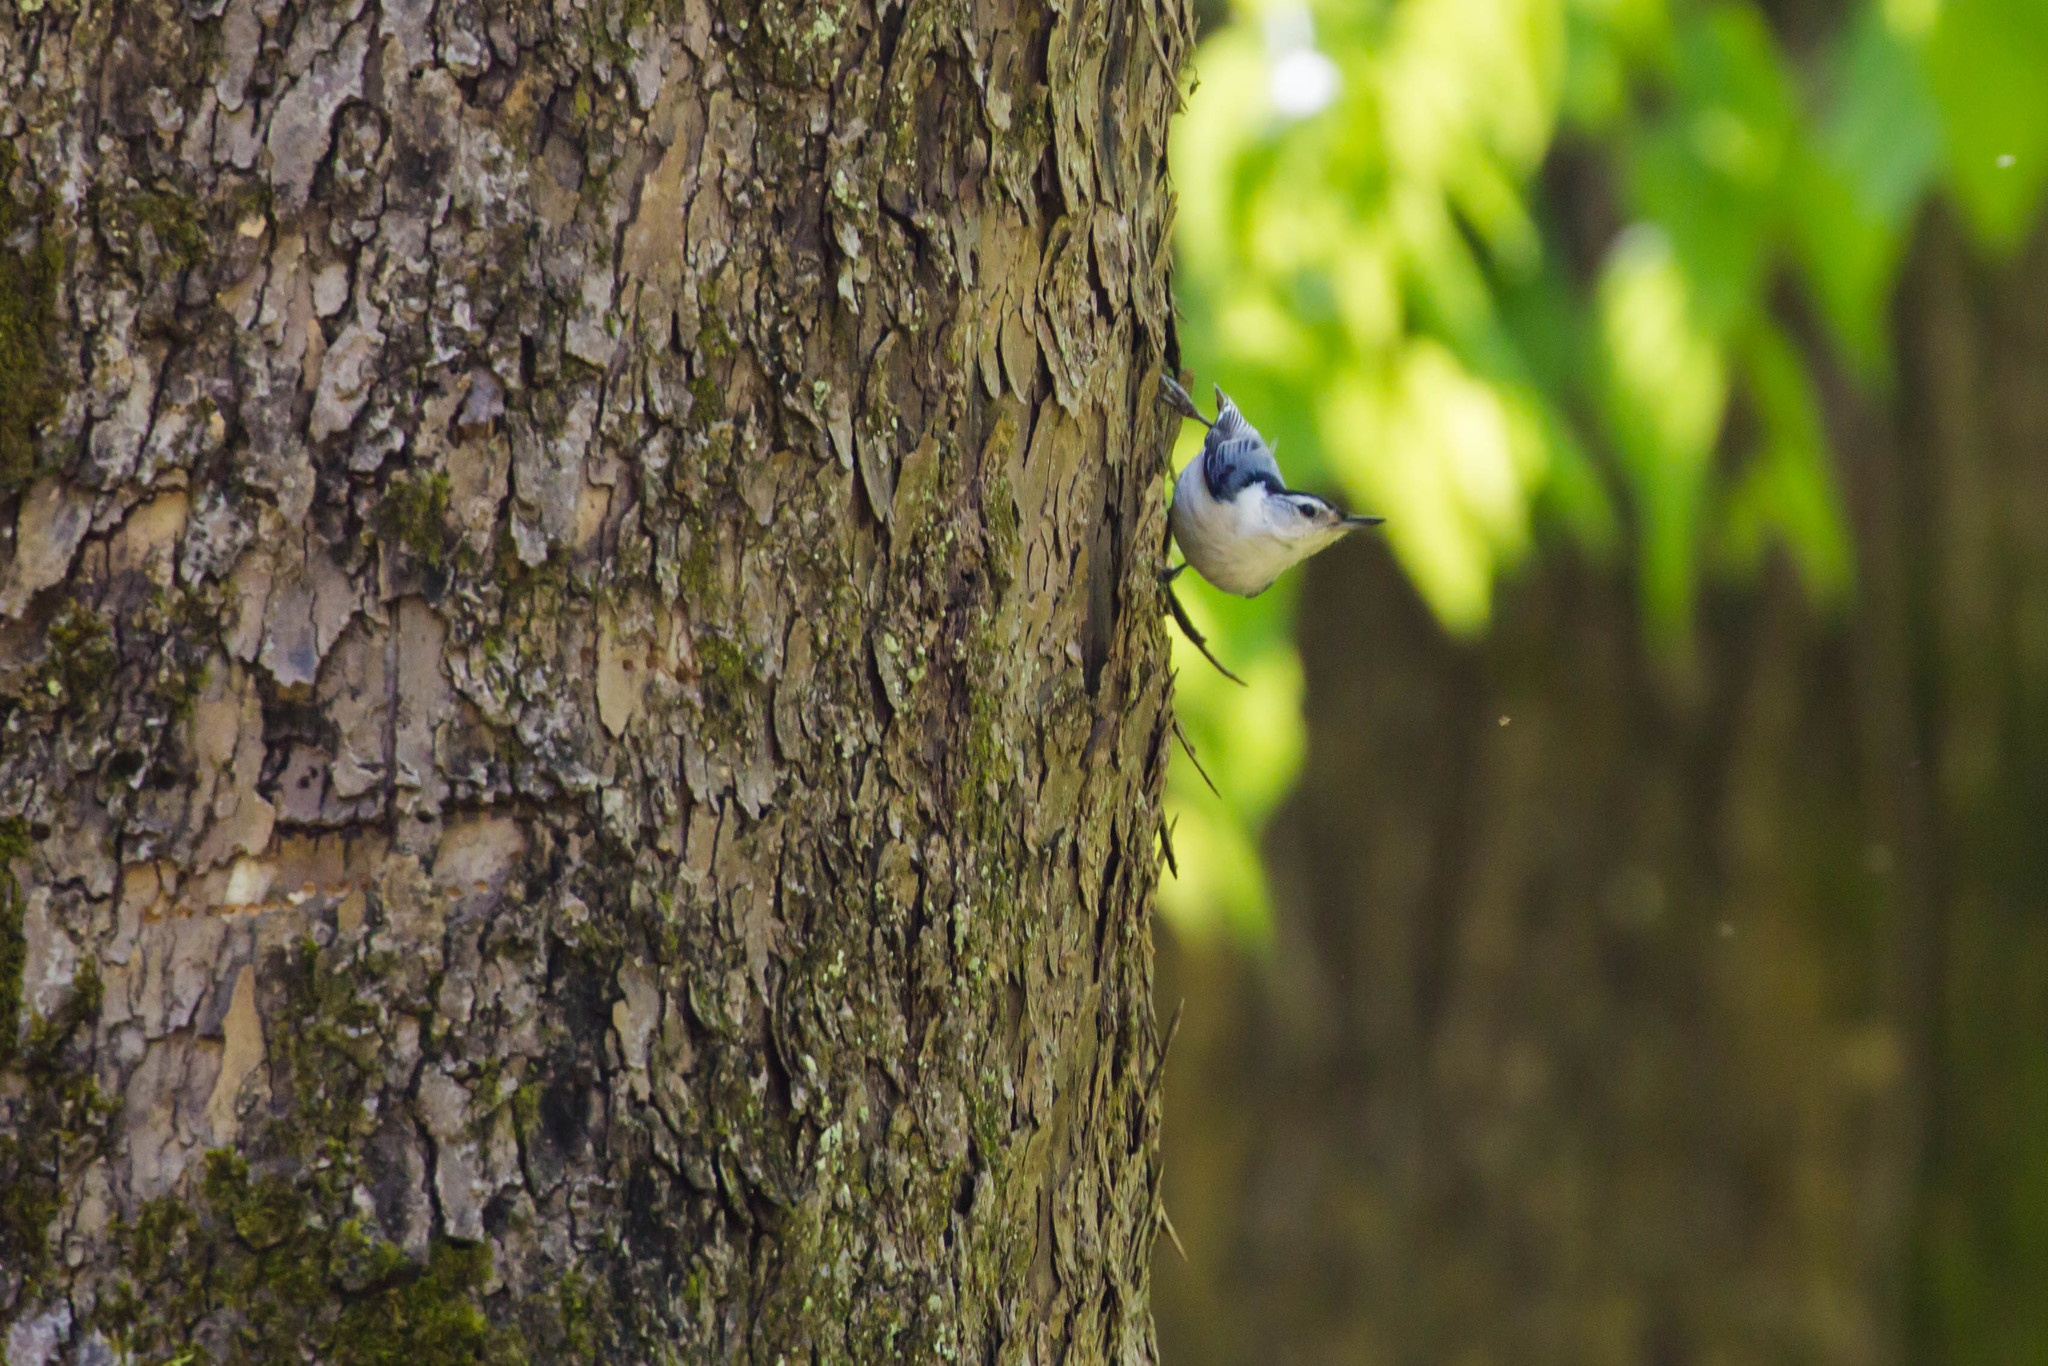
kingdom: Animalia
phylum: Chordata
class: Aves
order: Passeriformes
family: Sittidae
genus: Sitta
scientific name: Sitta carolinensis
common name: White-breasted nuthatch
